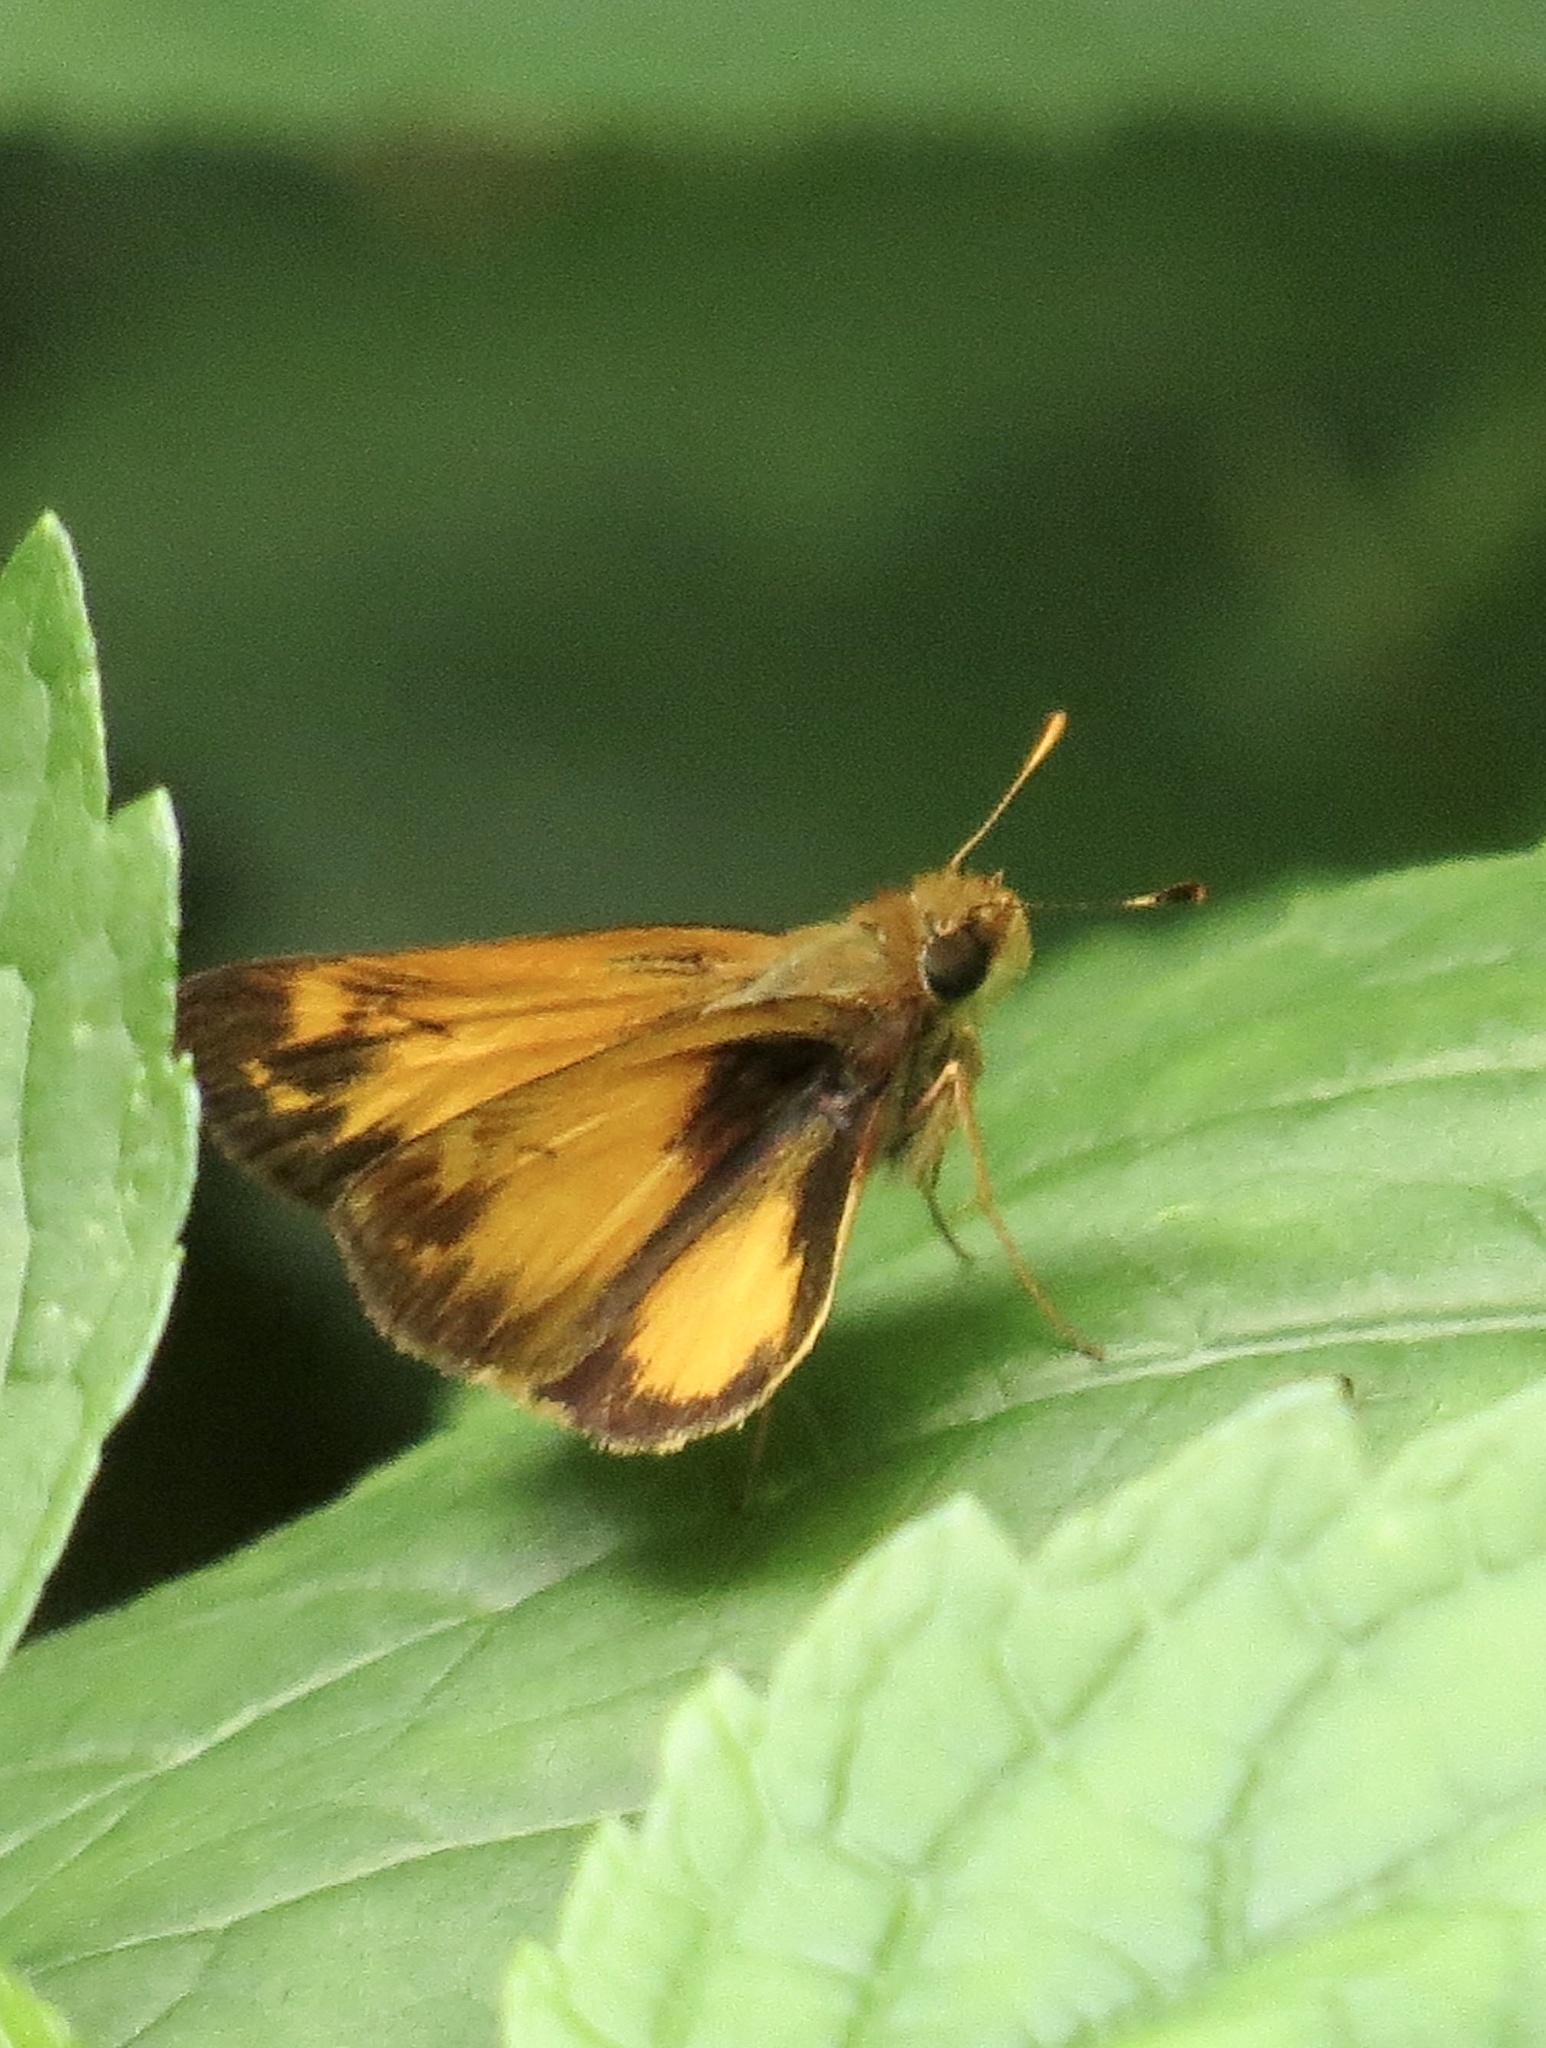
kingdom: Animalia
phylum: Arthropoda
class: Insecta
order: Lepidoptera
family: Hesperiidae
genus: Lon
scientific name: Lon zabulon
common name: Zabulon skipper
